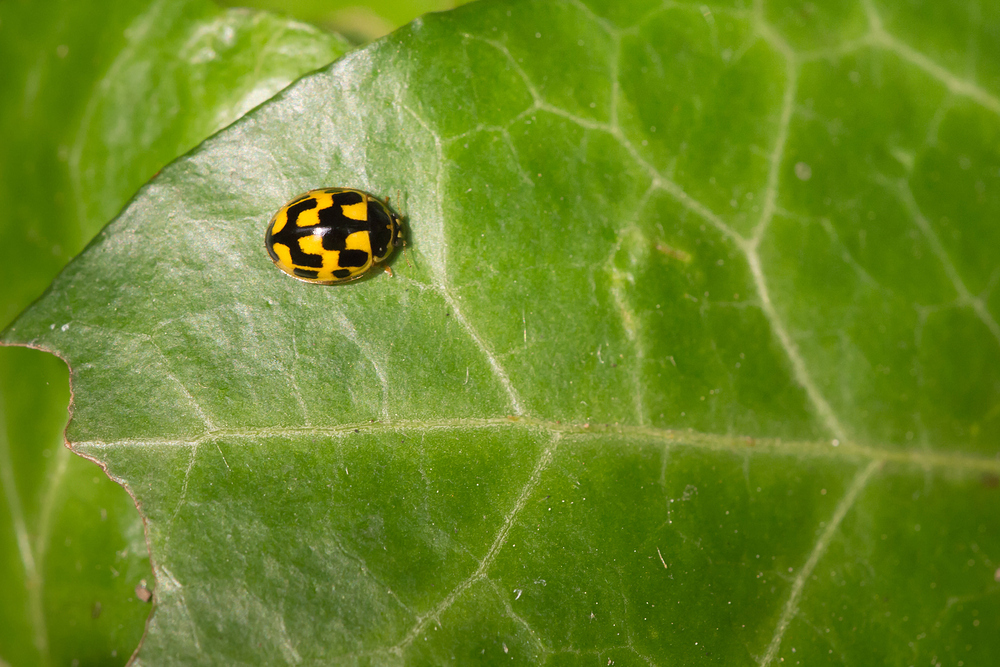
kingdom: Animalia
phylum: Arthropoda
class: Insecta
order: Coleoptera
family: Coccinellidae
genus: Propylaea
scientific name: Propylaea quatuordecimpunctata
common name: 14-spotted ladybird beetle
